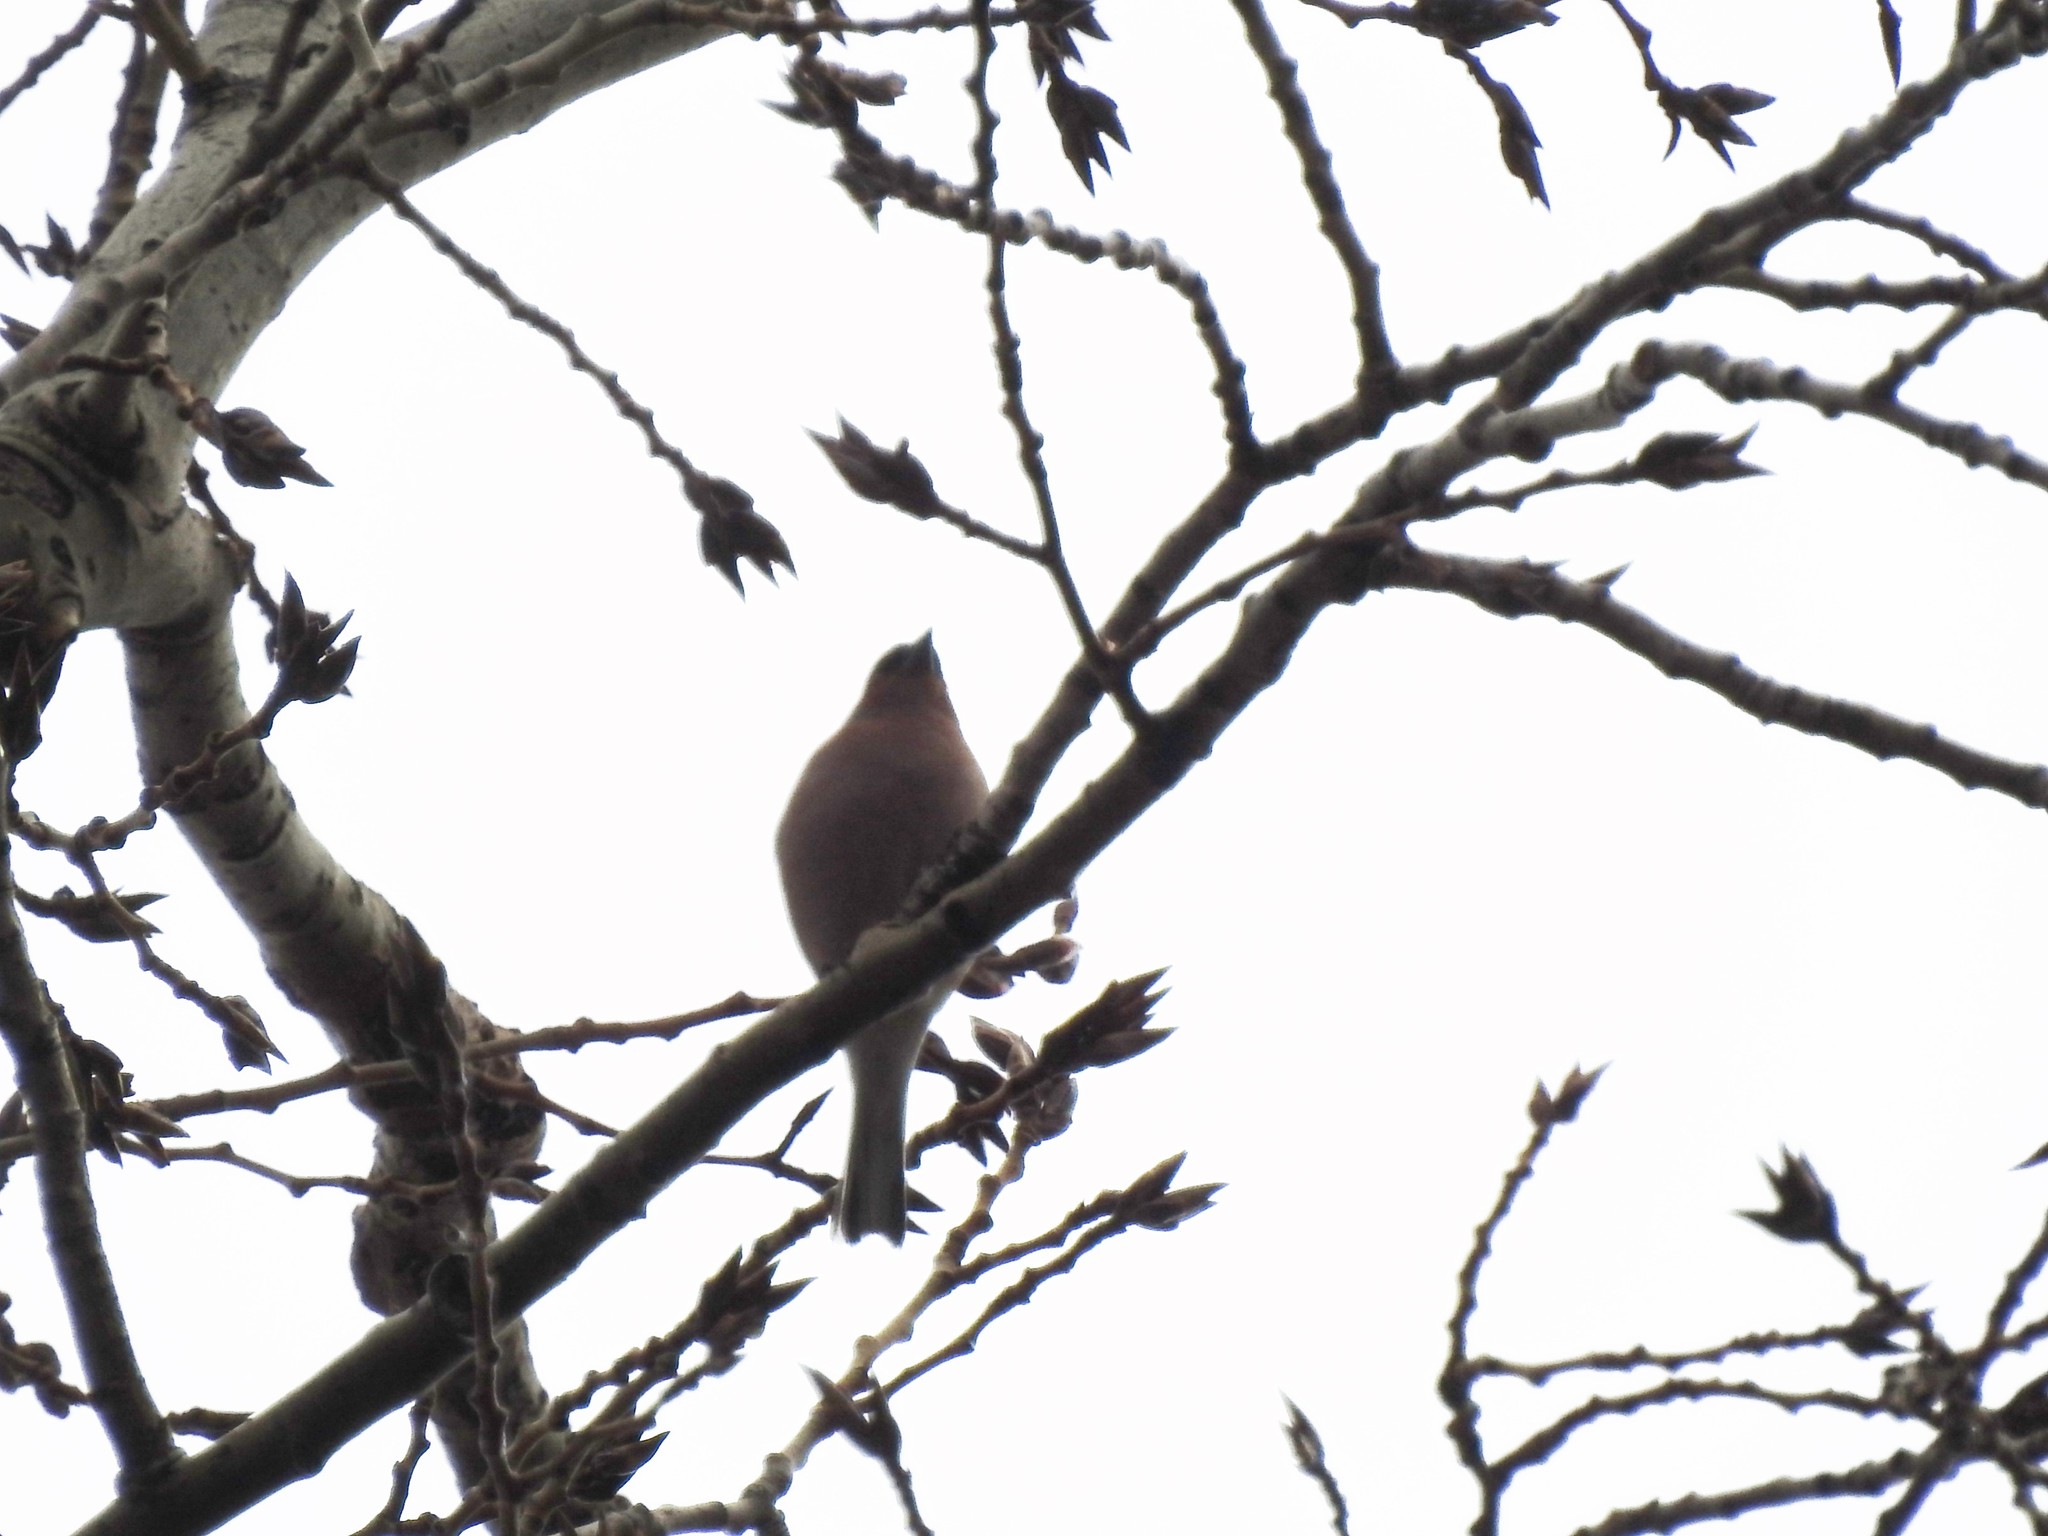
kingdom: Animalia
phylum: Chordata
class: Aves
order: Passeriformes
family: Fringillidae
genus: Fringilla
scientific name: Fringilla coelebs
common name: Common chaffinch
